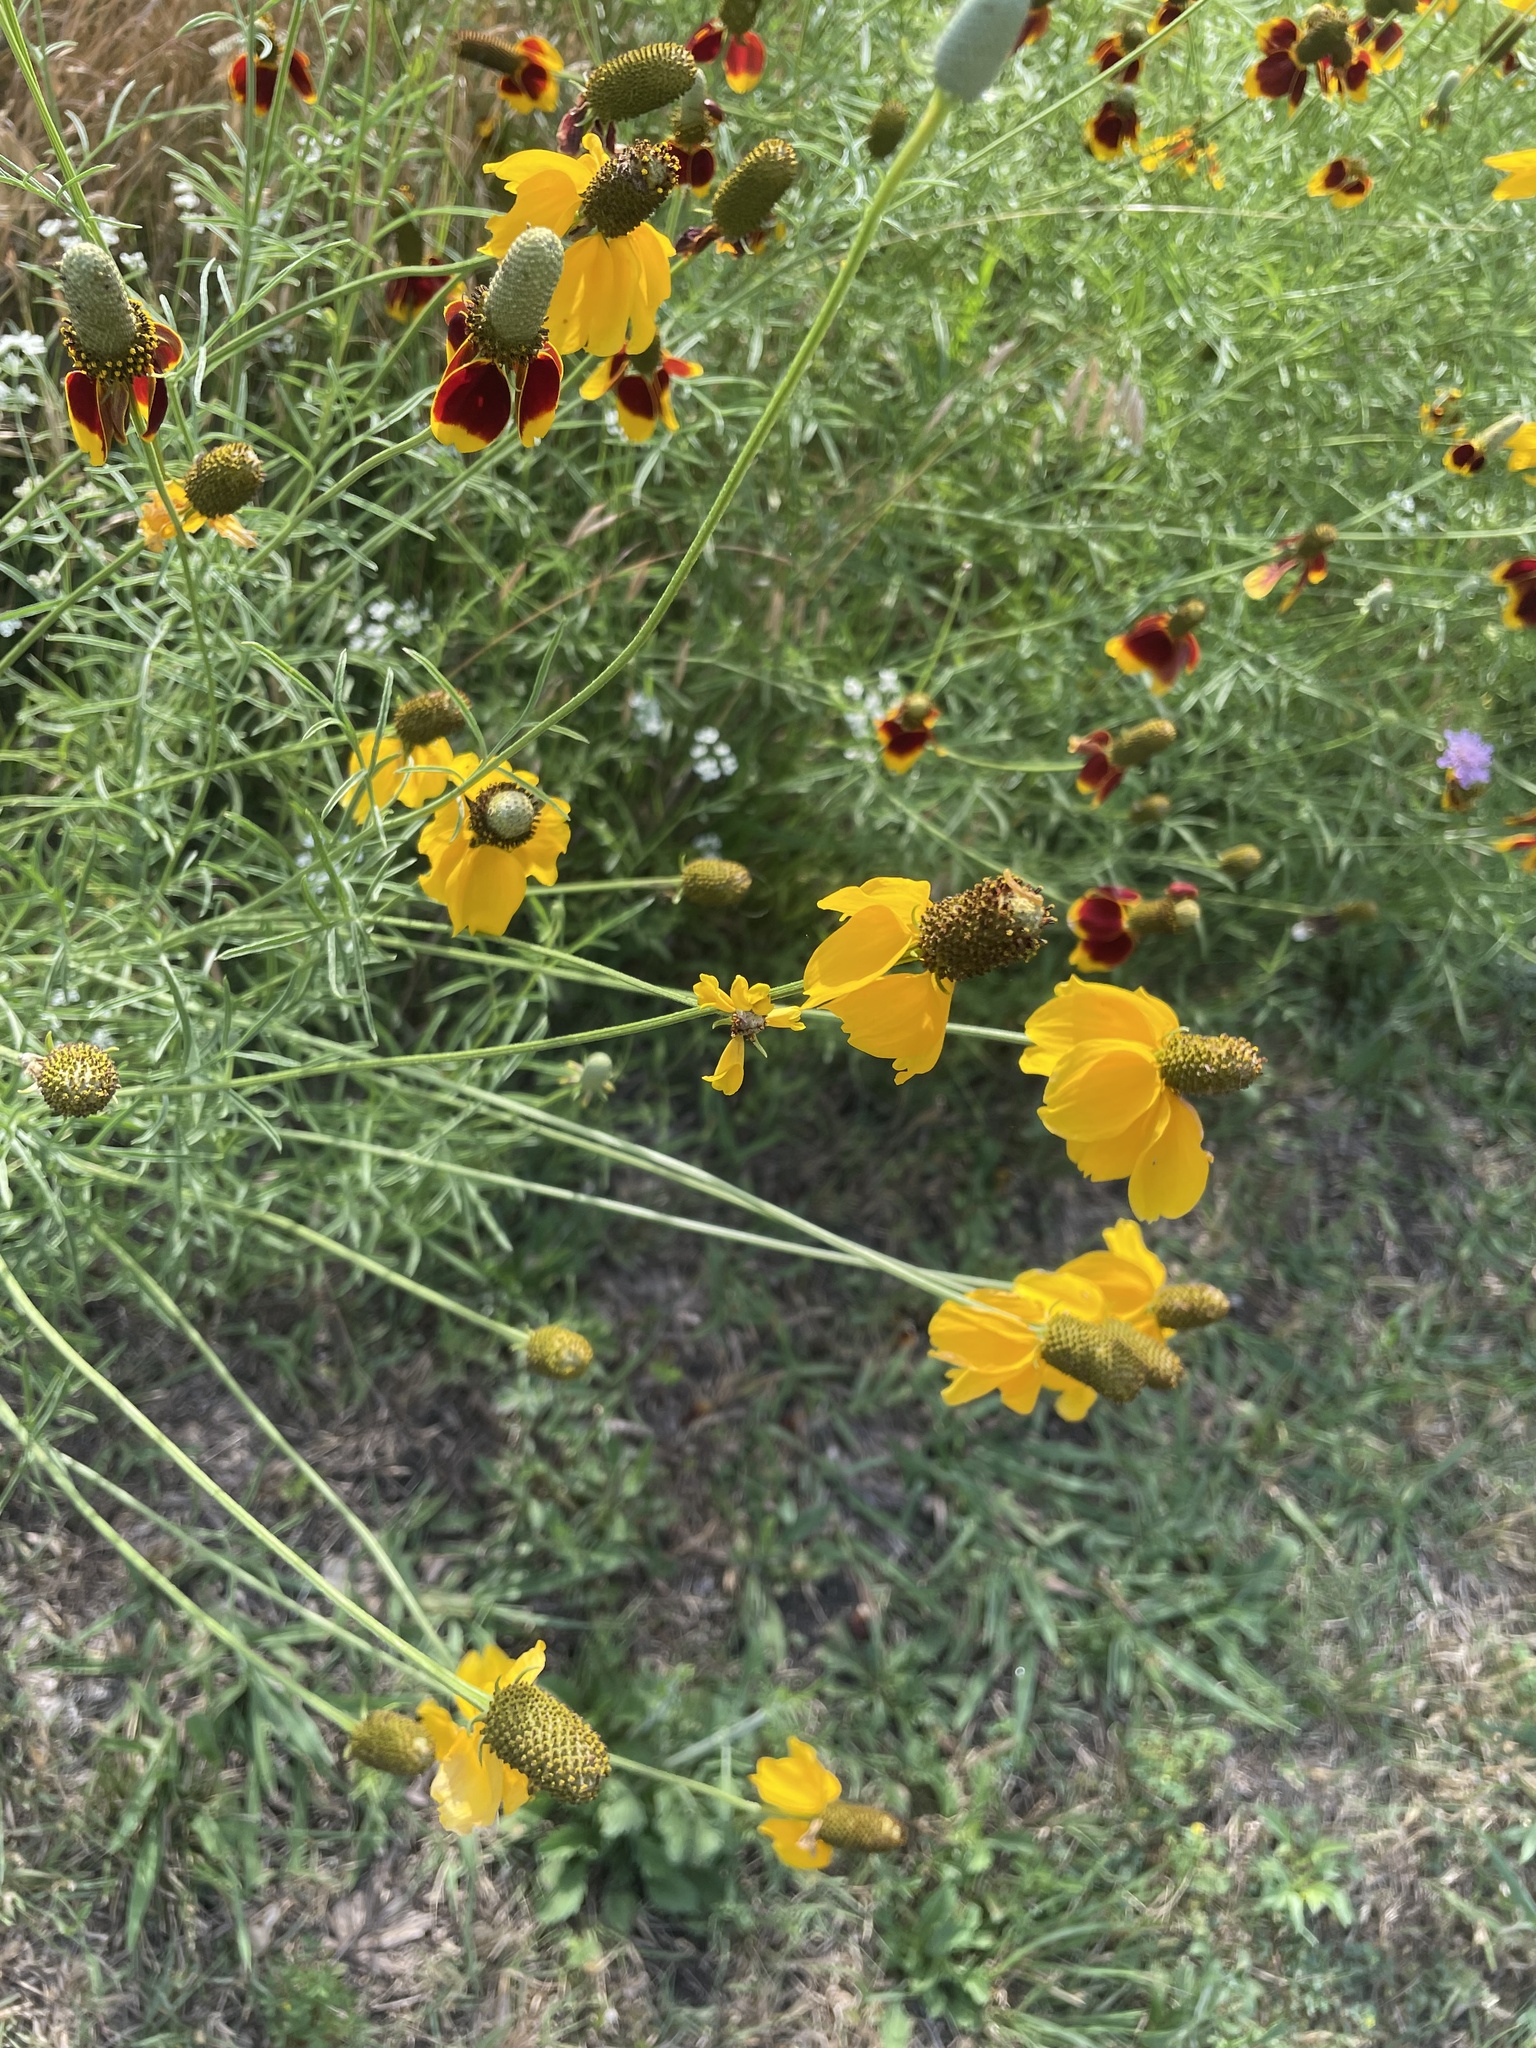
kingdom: Plantae
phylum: Tracheophyta
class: Magnoliopsida
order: Asterales
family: Asteraceae
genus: Ratibida
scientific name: Ratibida columnifera
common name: Prairie coneflower
